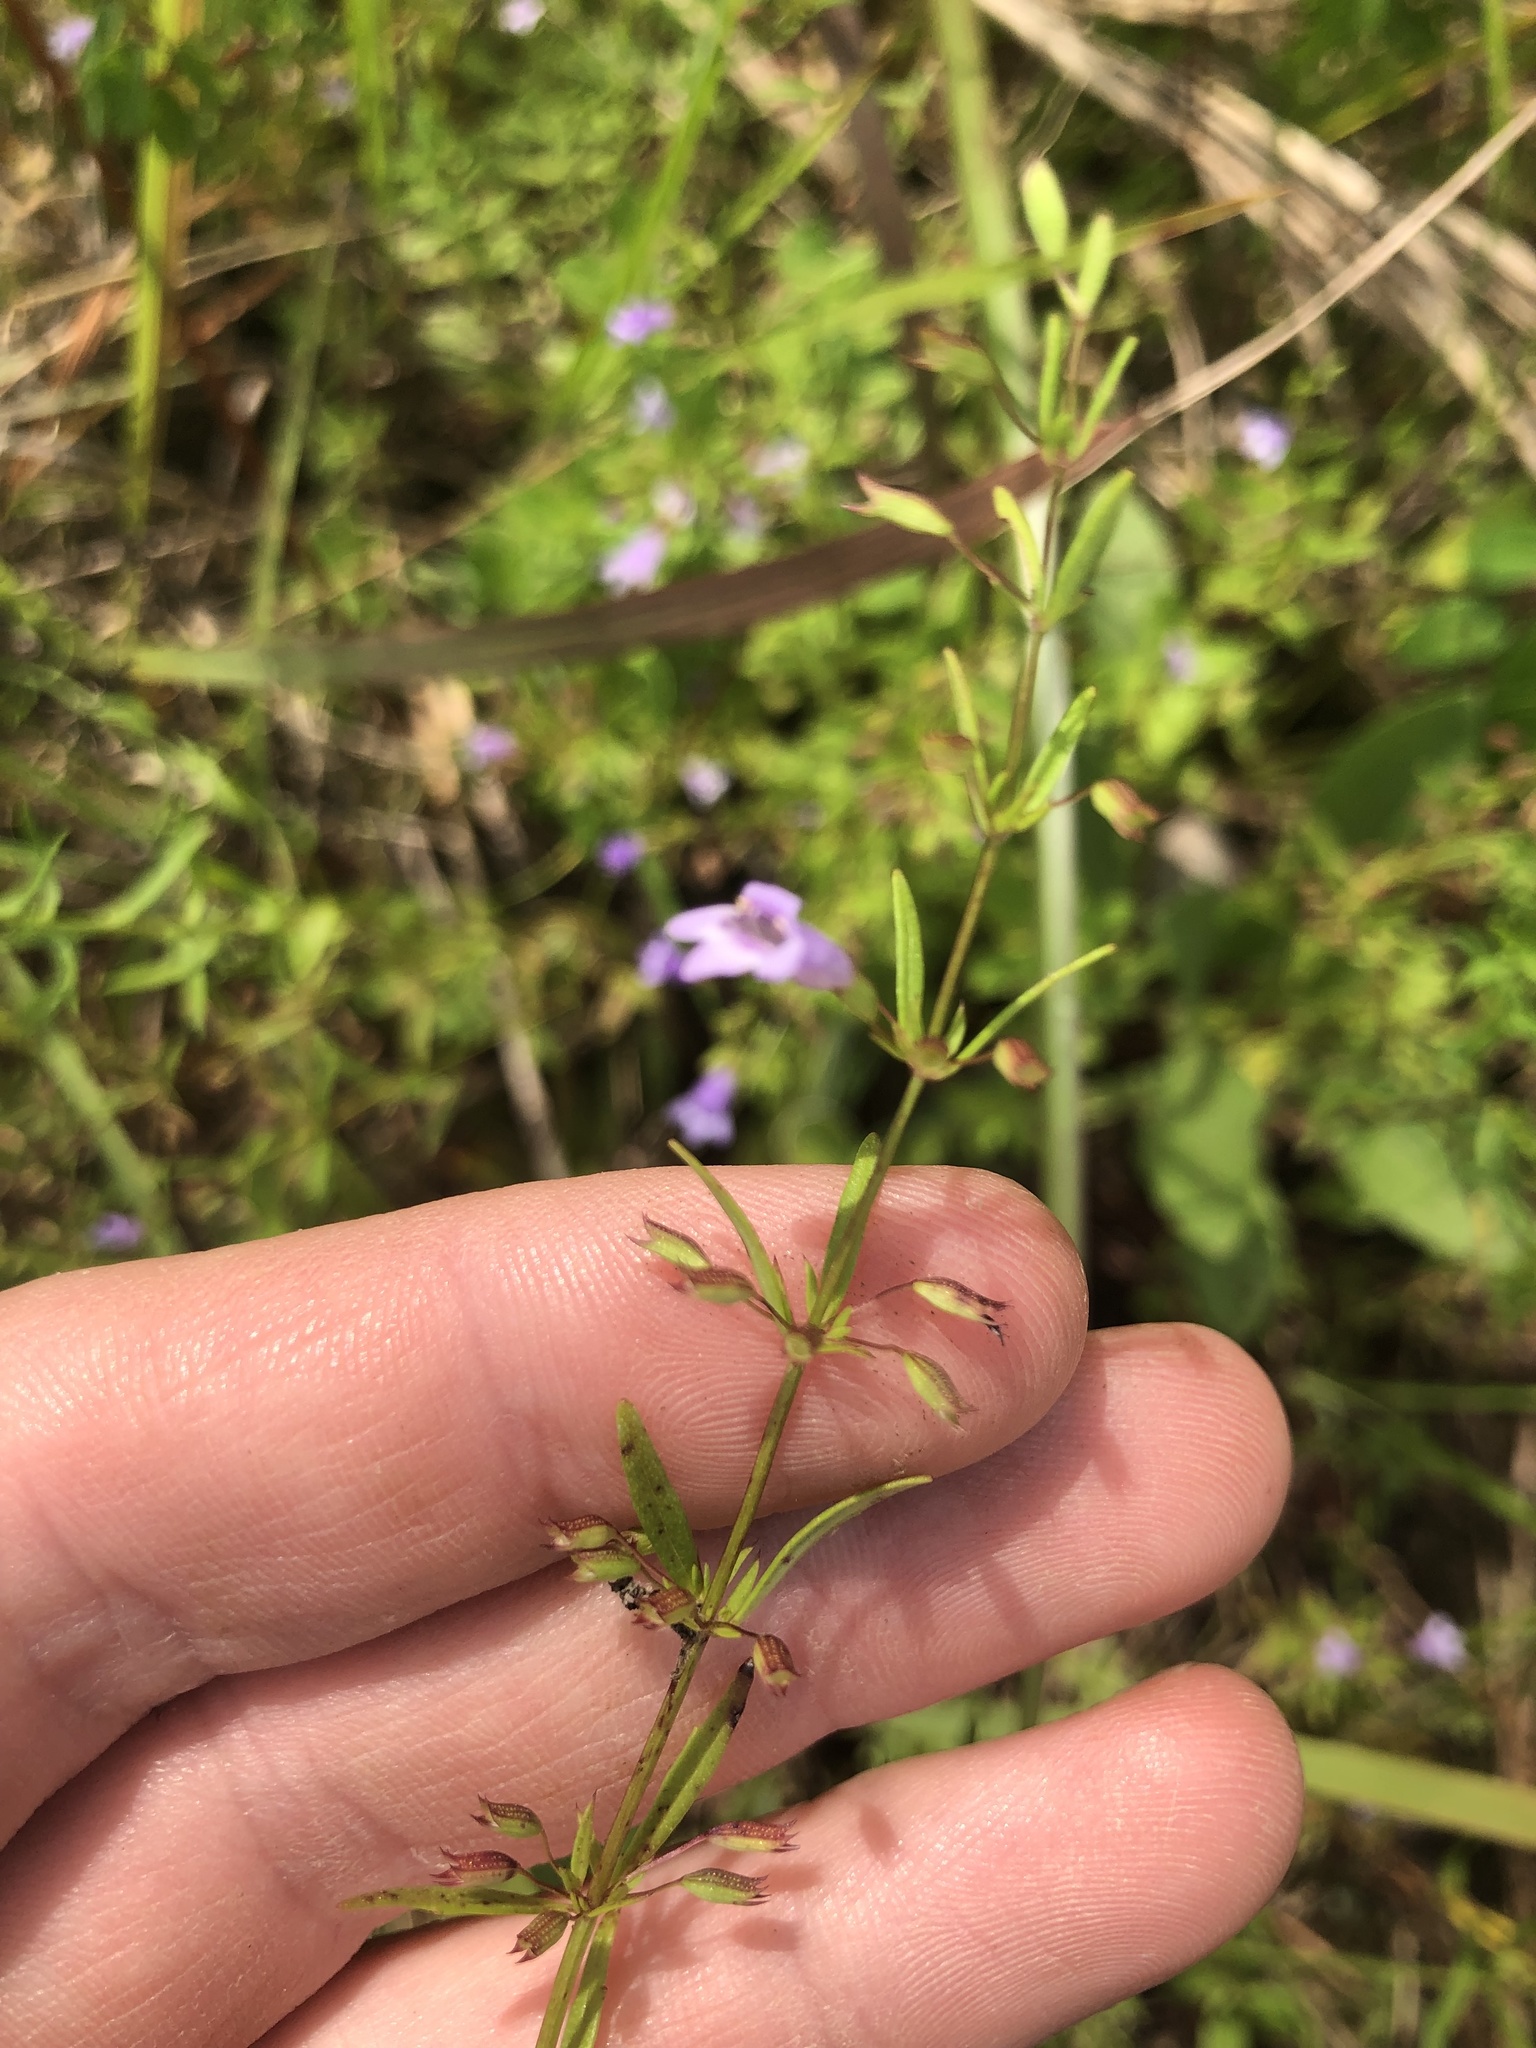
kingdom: Plantae
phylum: Tracheophyta
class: Magnoliopsida
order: Lamiales
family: Lamiaceae
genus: Clinopodium
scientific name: Clinopodium arkansanum
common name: Limestone calamint
